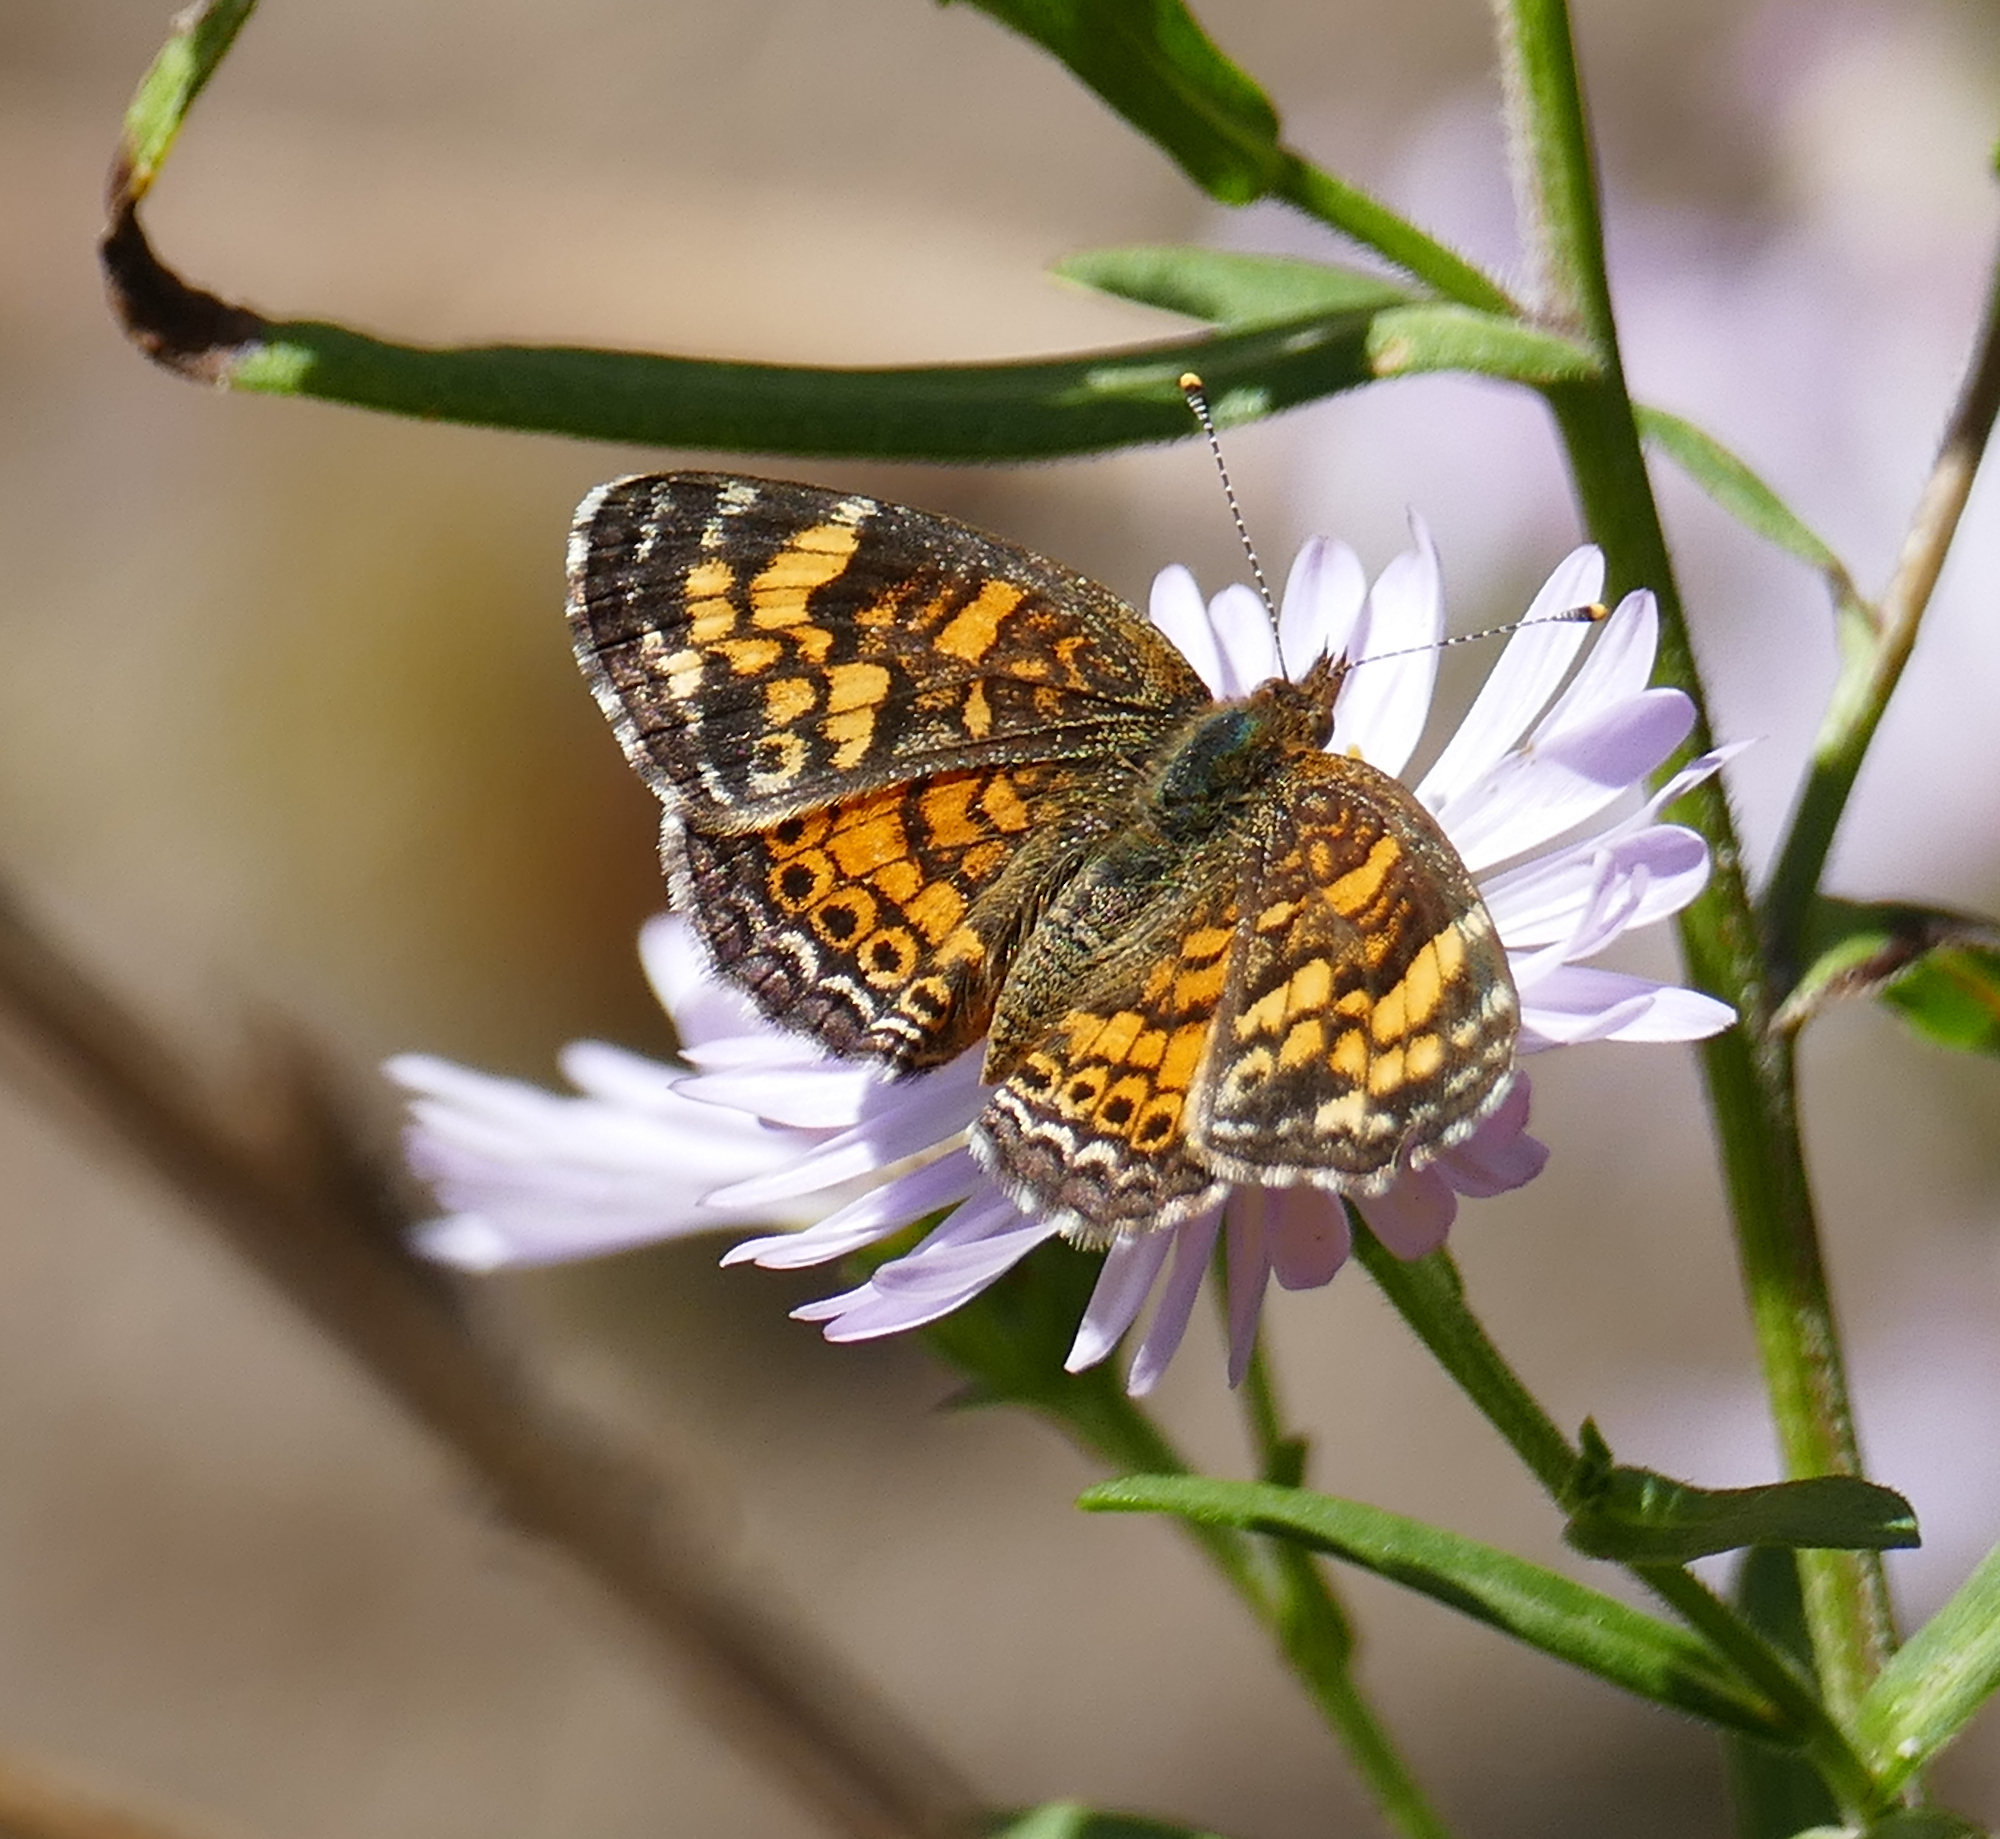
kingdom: Animalia
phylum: Arthropoda
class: Insecta
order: Lepidoptera
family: Nymphalidae
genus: Phyciodes
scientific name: Phyciodes tharos
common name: Pearl crescent
